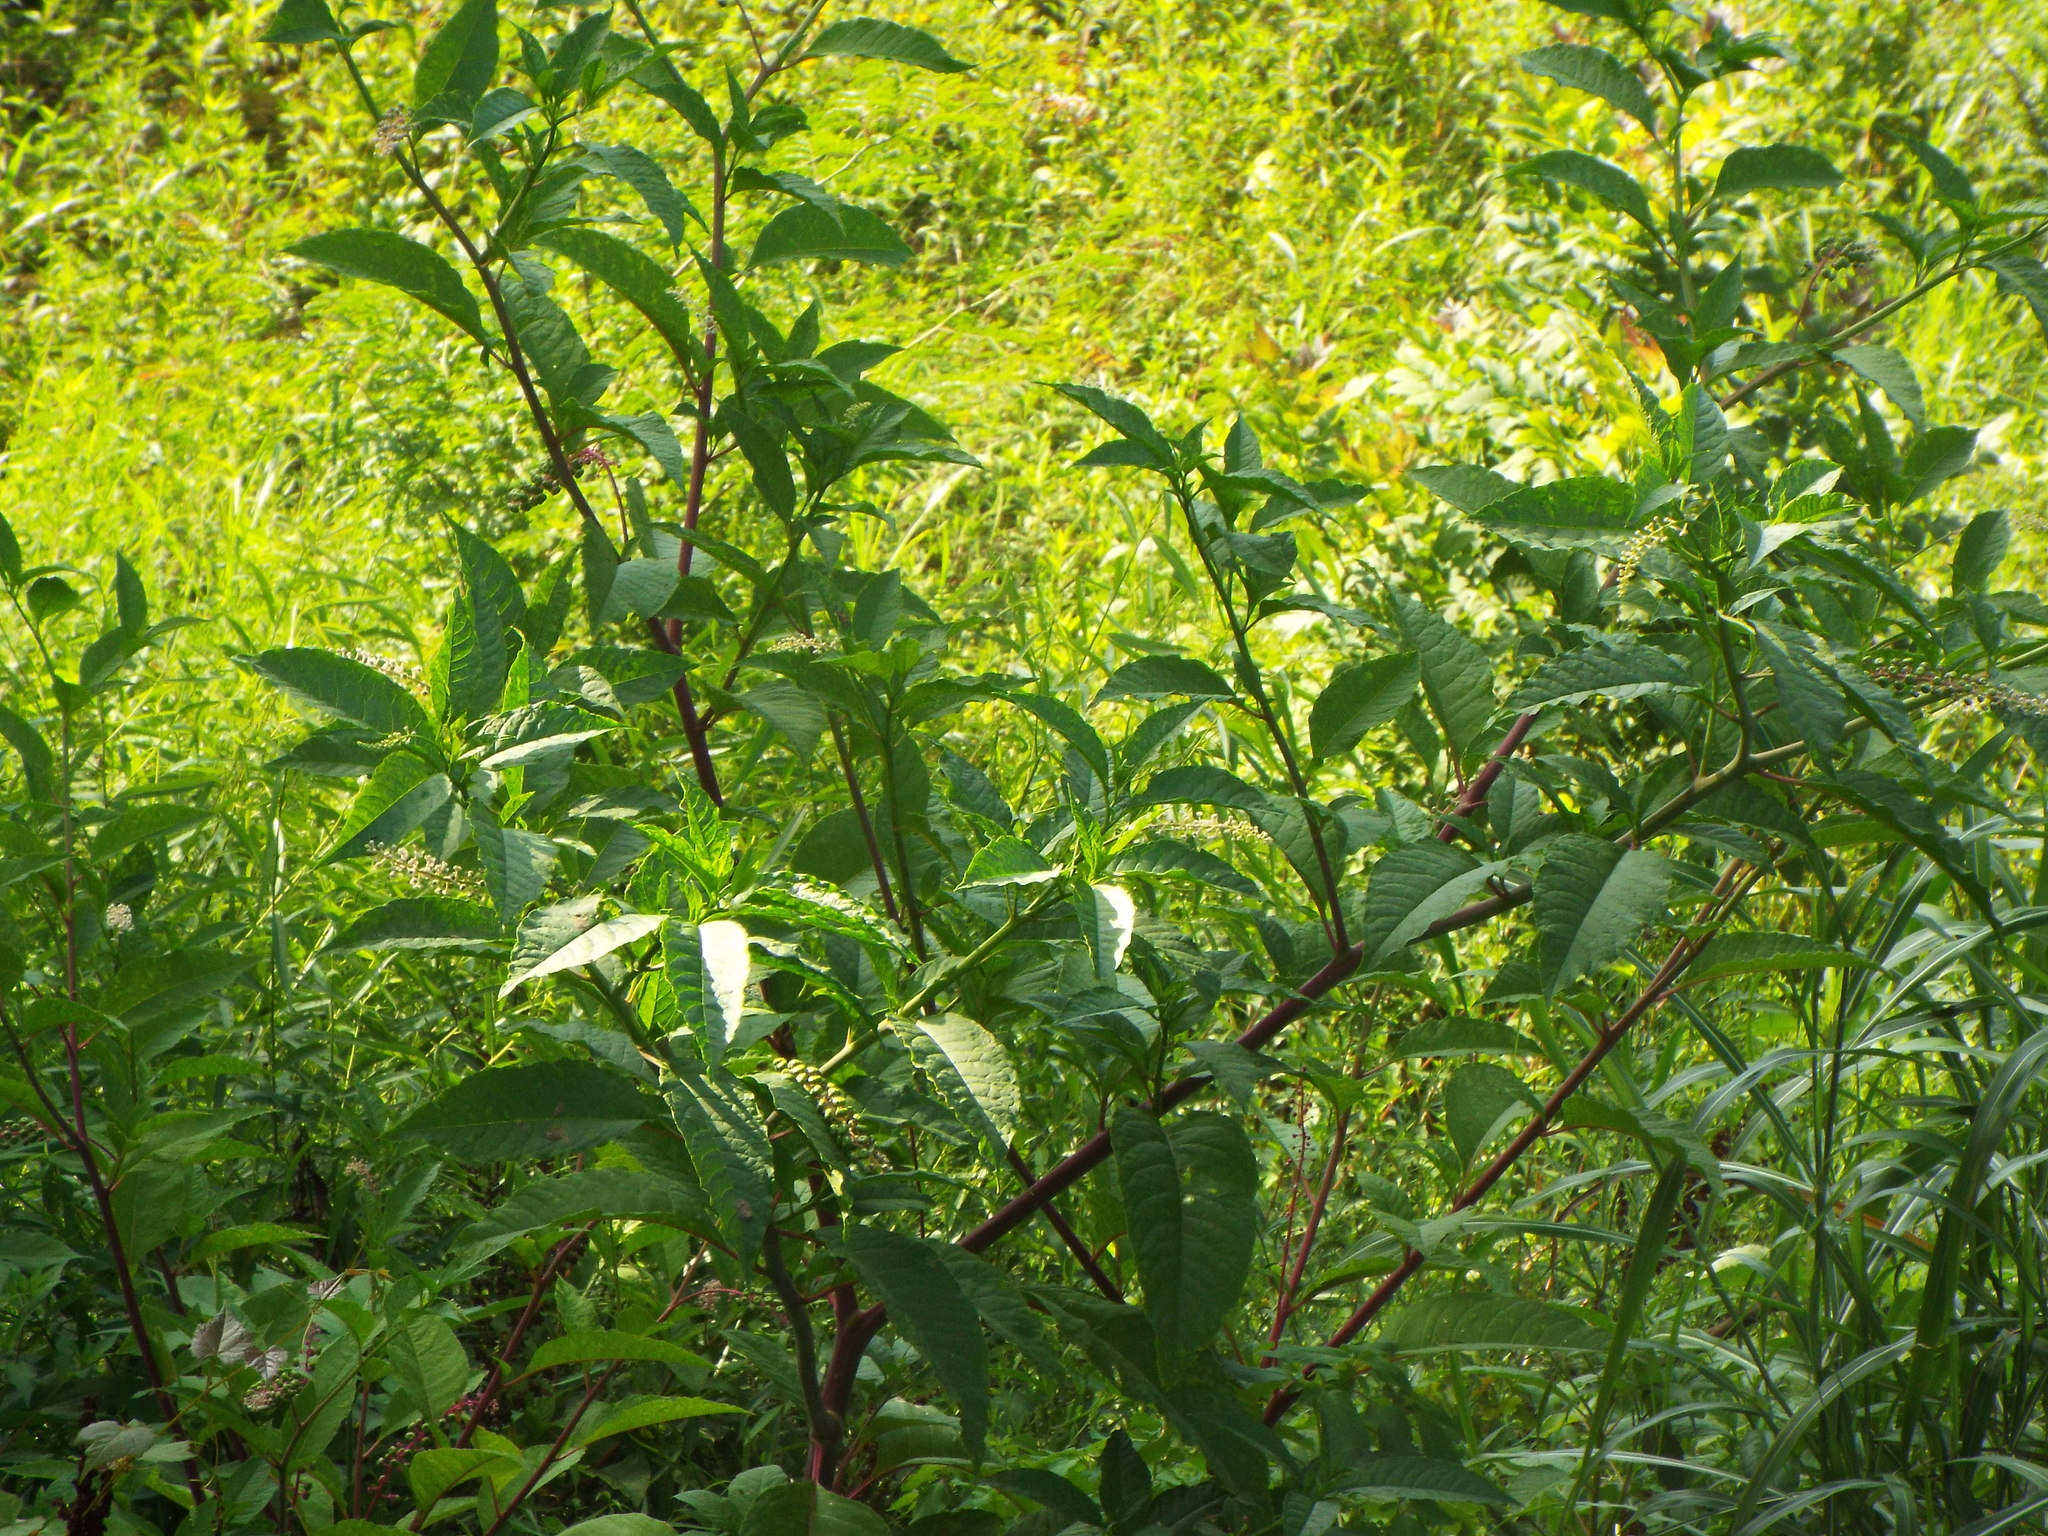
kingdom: Plantae
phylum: Tracheophyta
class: Magnoliopsida
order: Caryophyllales
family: Phytolaccaceae
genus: Phytolacca
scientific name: Phytolacca americana
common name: American pokeweed
